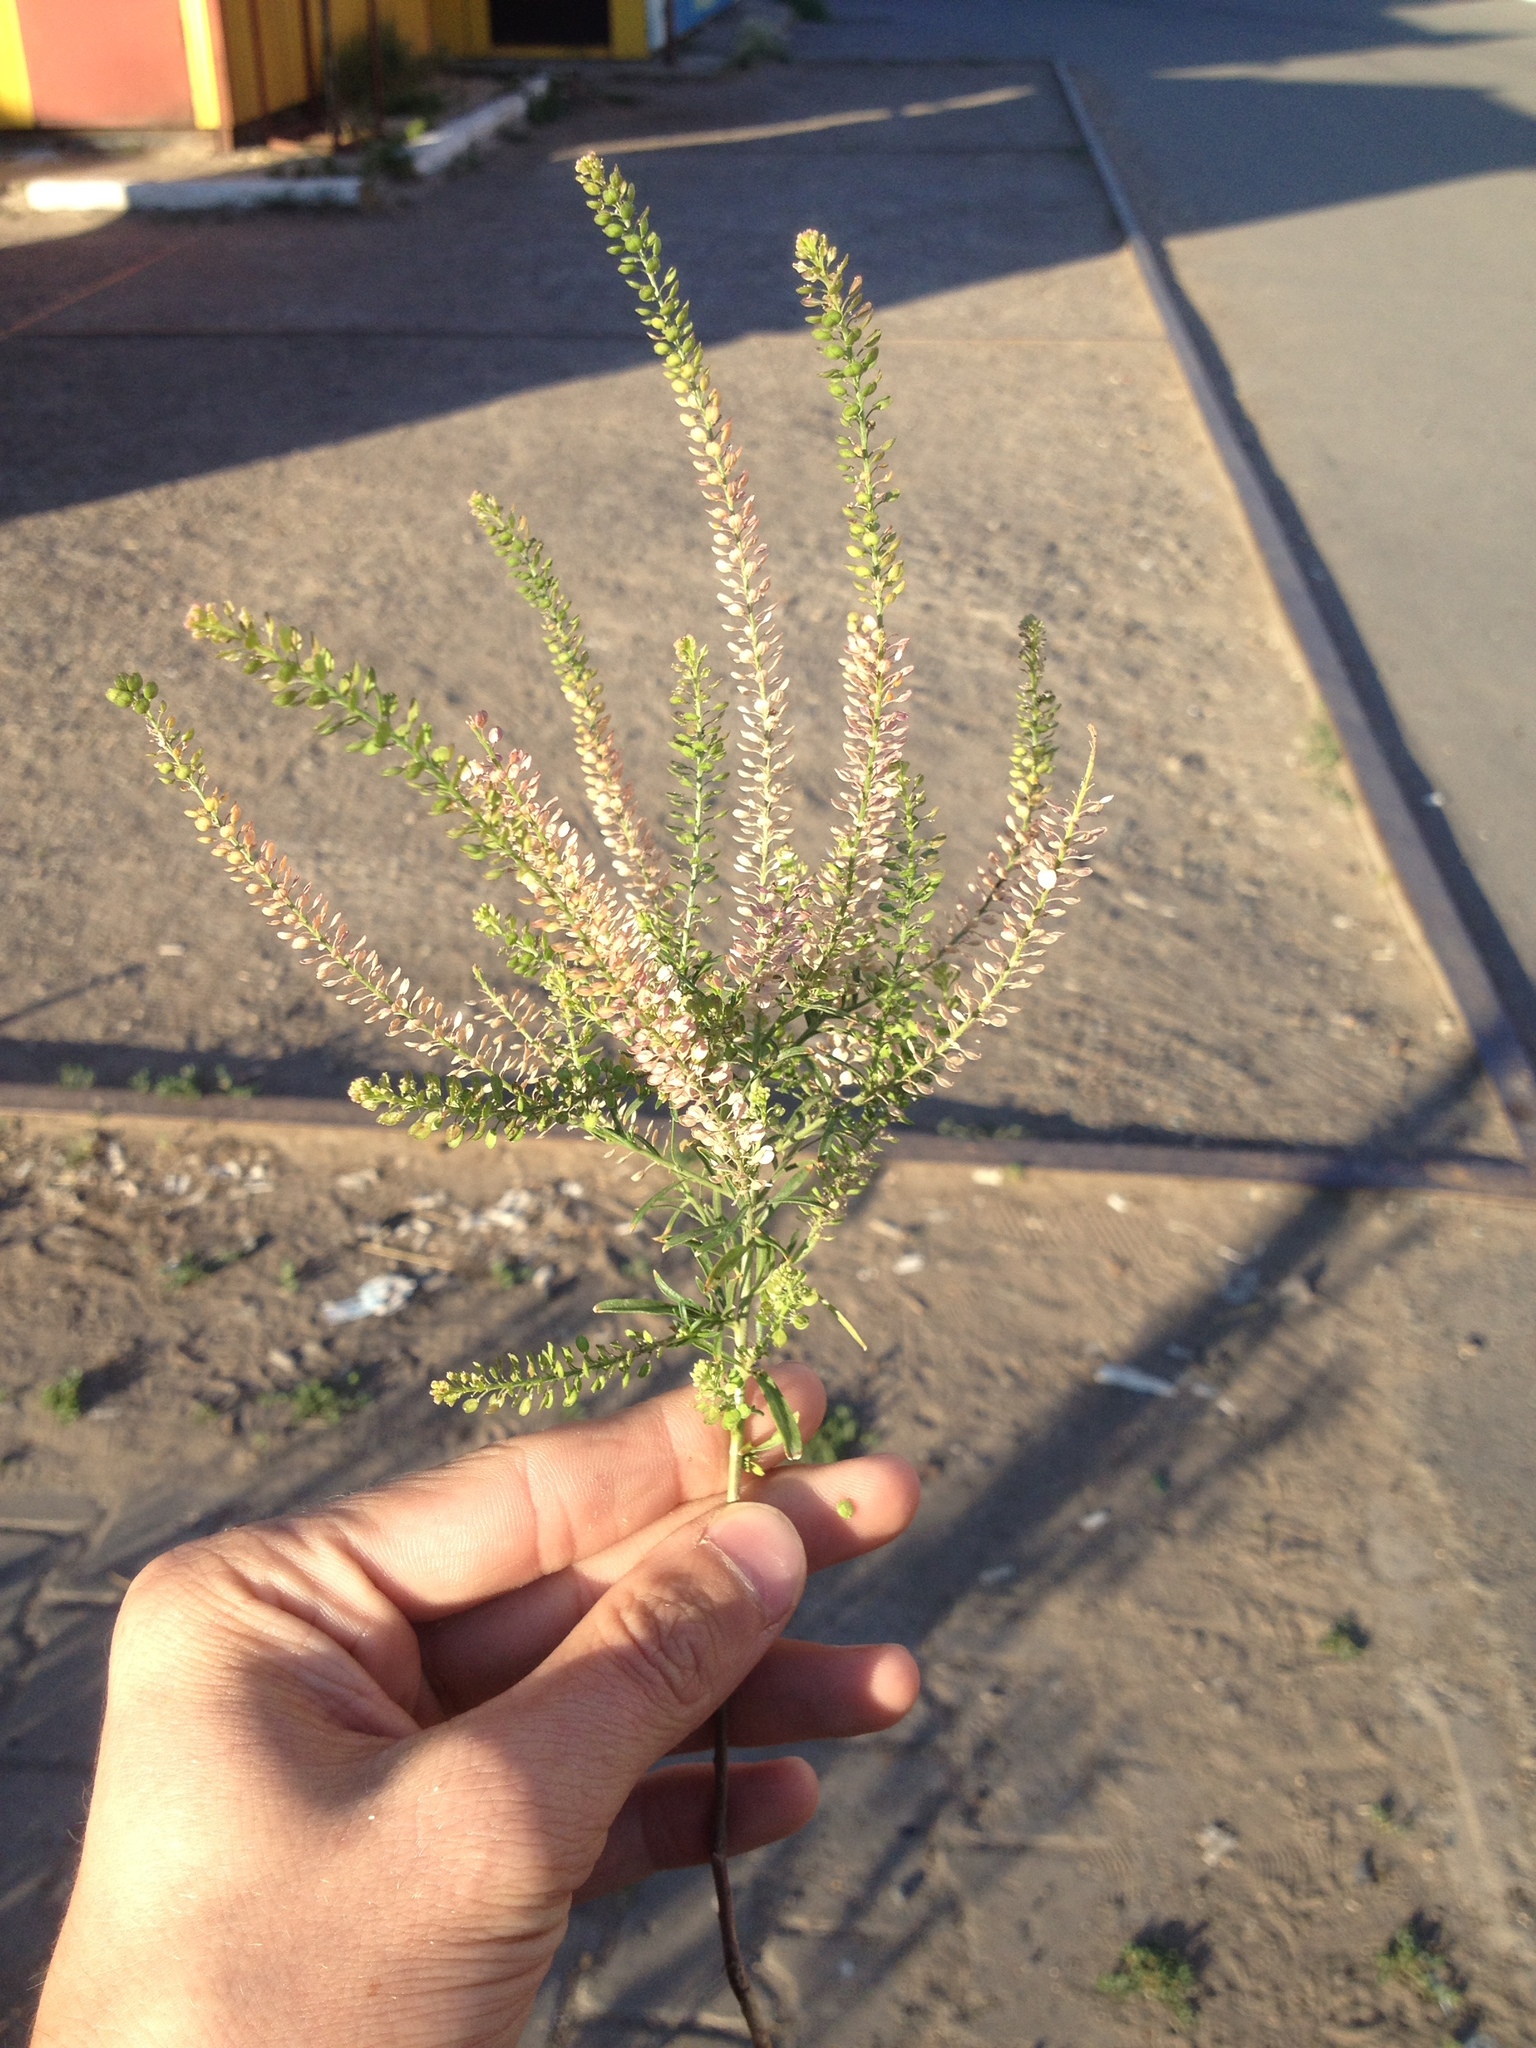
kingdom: Plantae
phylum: Tracheophyta
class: Magnoliopsida
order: Brassicales
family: Brassicaceae
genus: Lepidium
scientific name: Lepidium densiflorum
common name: Miner's pepperwort
